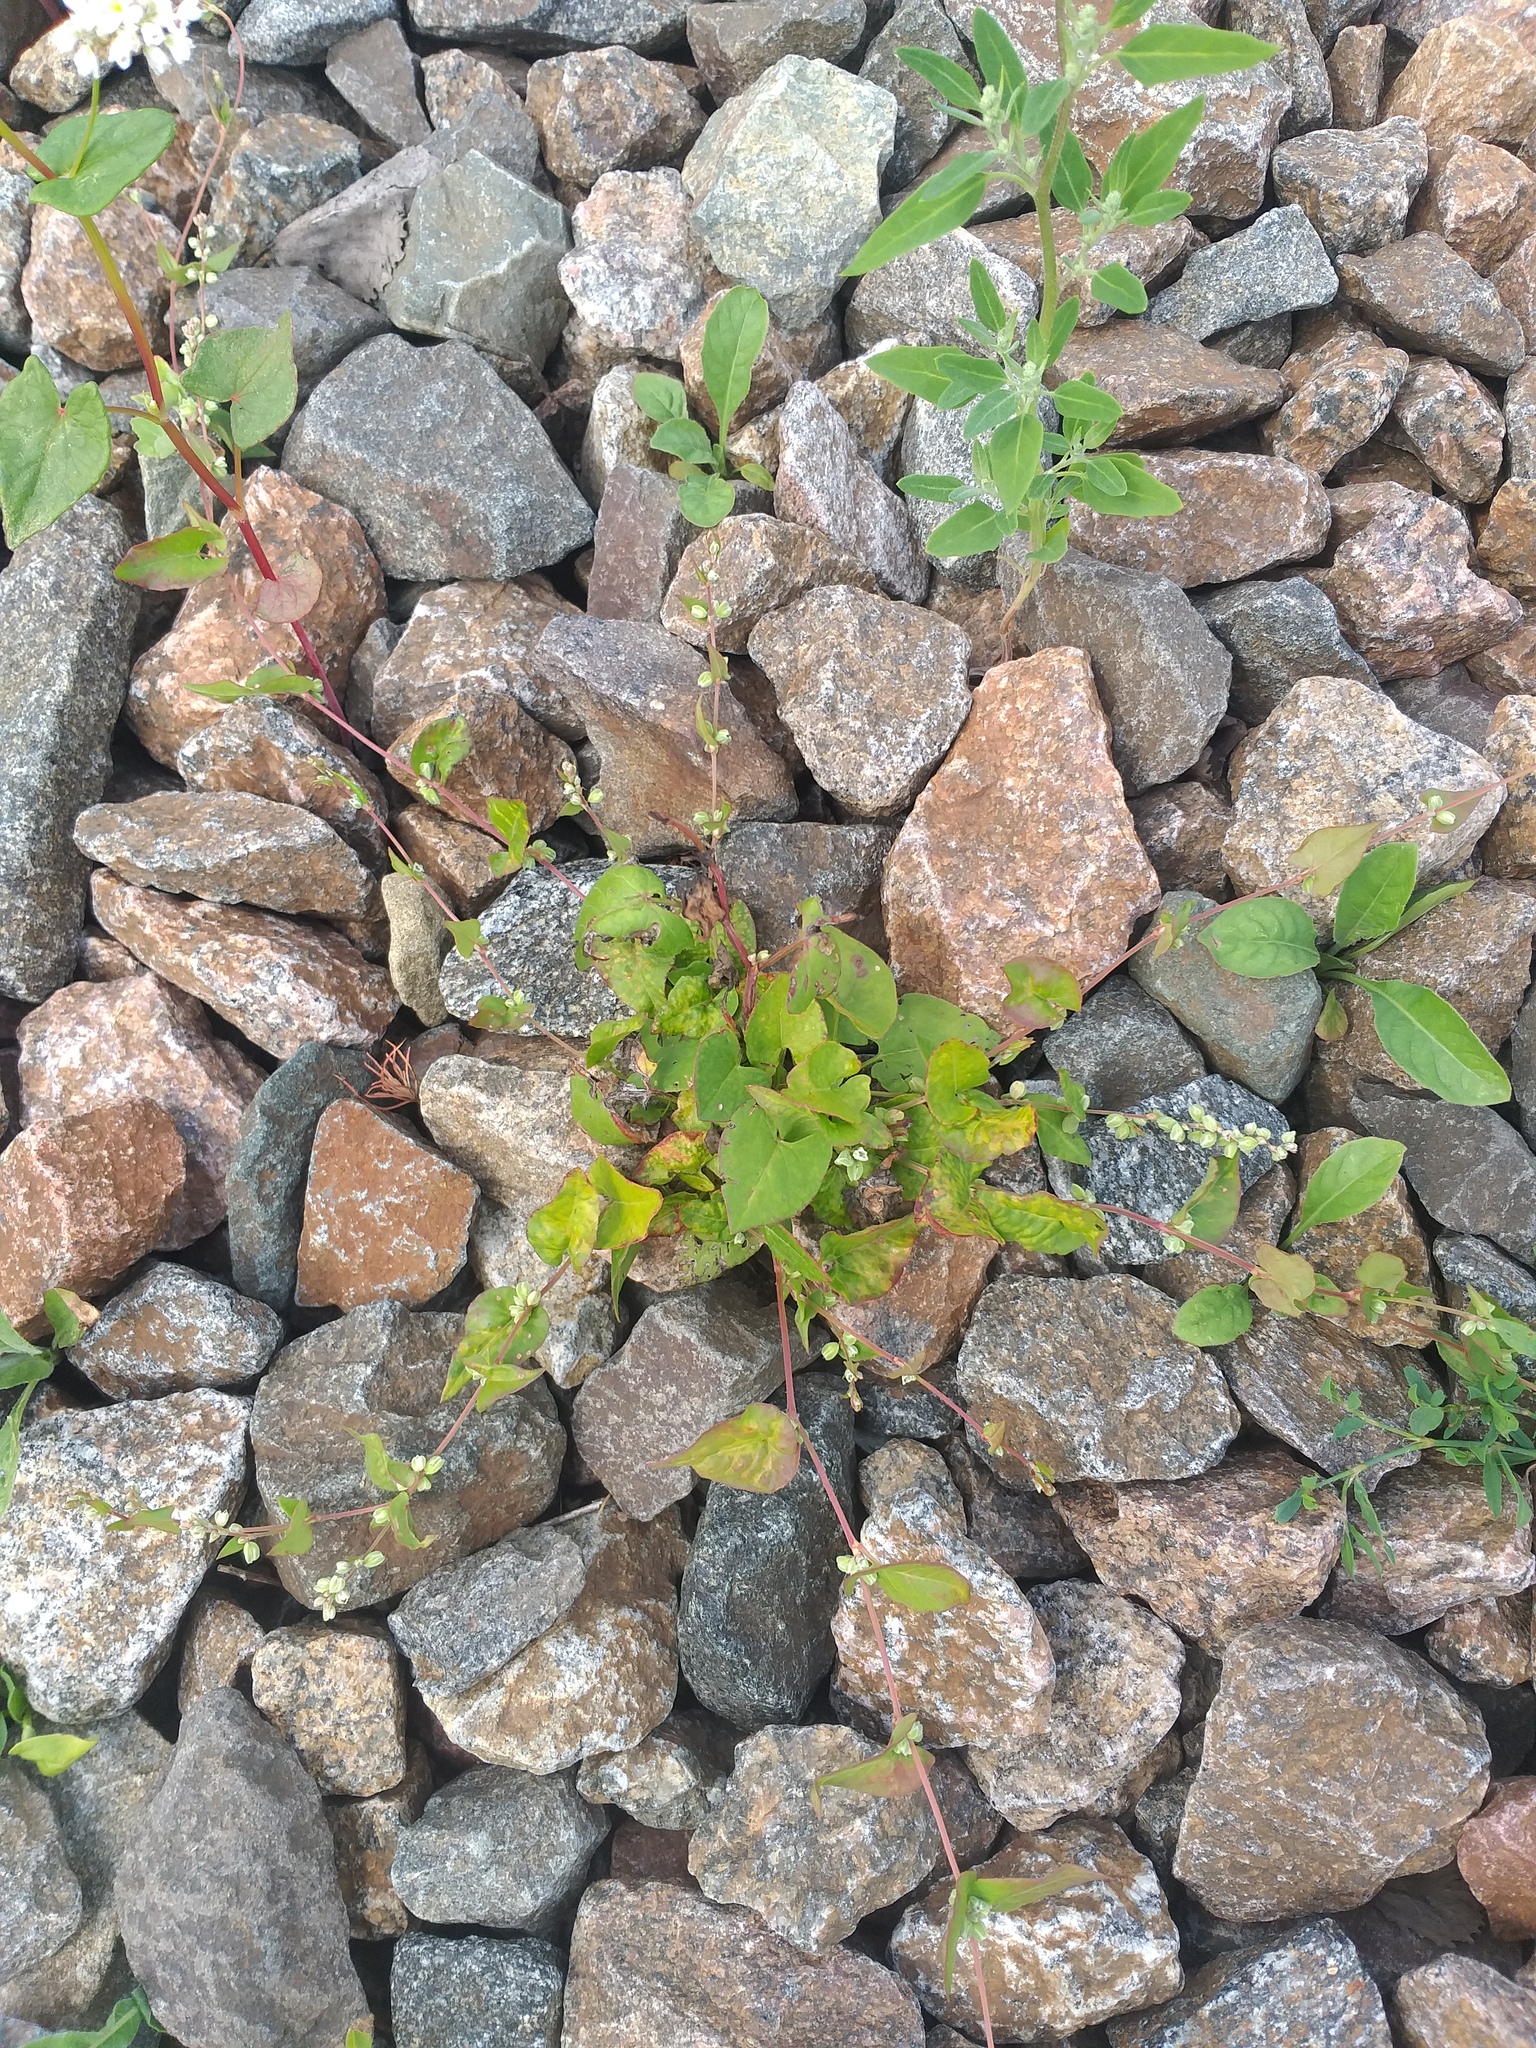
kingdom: Plantae
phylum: Tracheophyta
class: Magnoliopsida
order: Caryophyllales
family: Polygonaceae
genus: Fallopia
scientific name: Fallopia convolvulus
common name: Black bindweed
